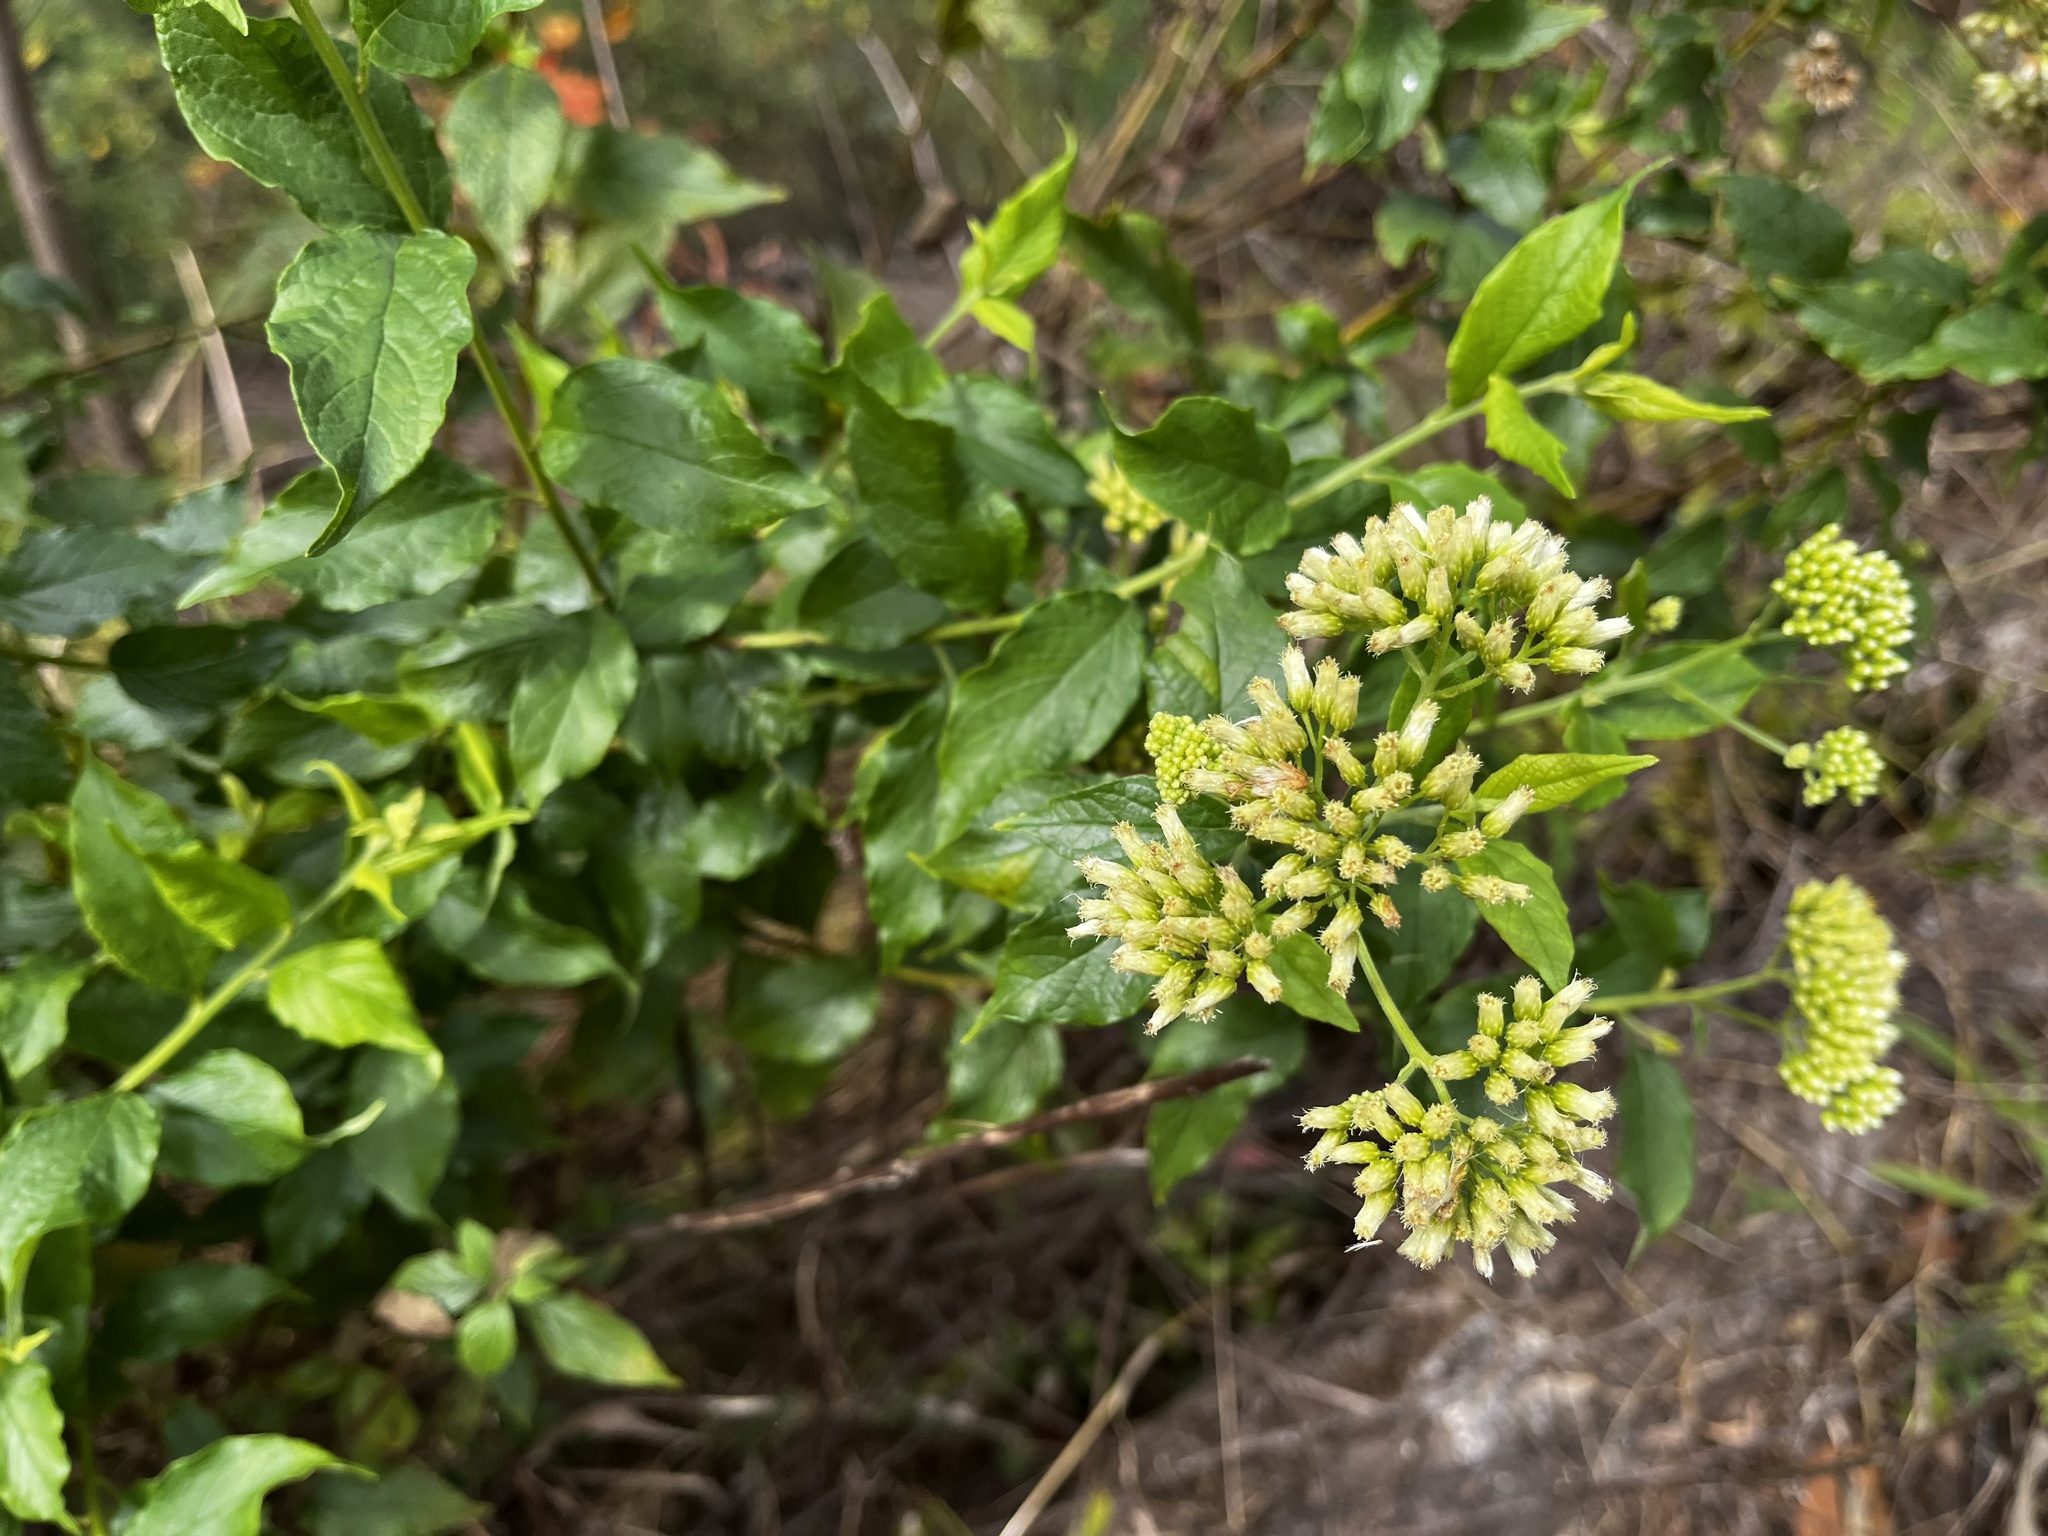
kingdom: Plantae
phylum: Tracheophyta
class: Magnoliopsida
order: Asterales
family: Asteraceae
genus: Microglossa
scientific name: Microglossa pyrifolia
